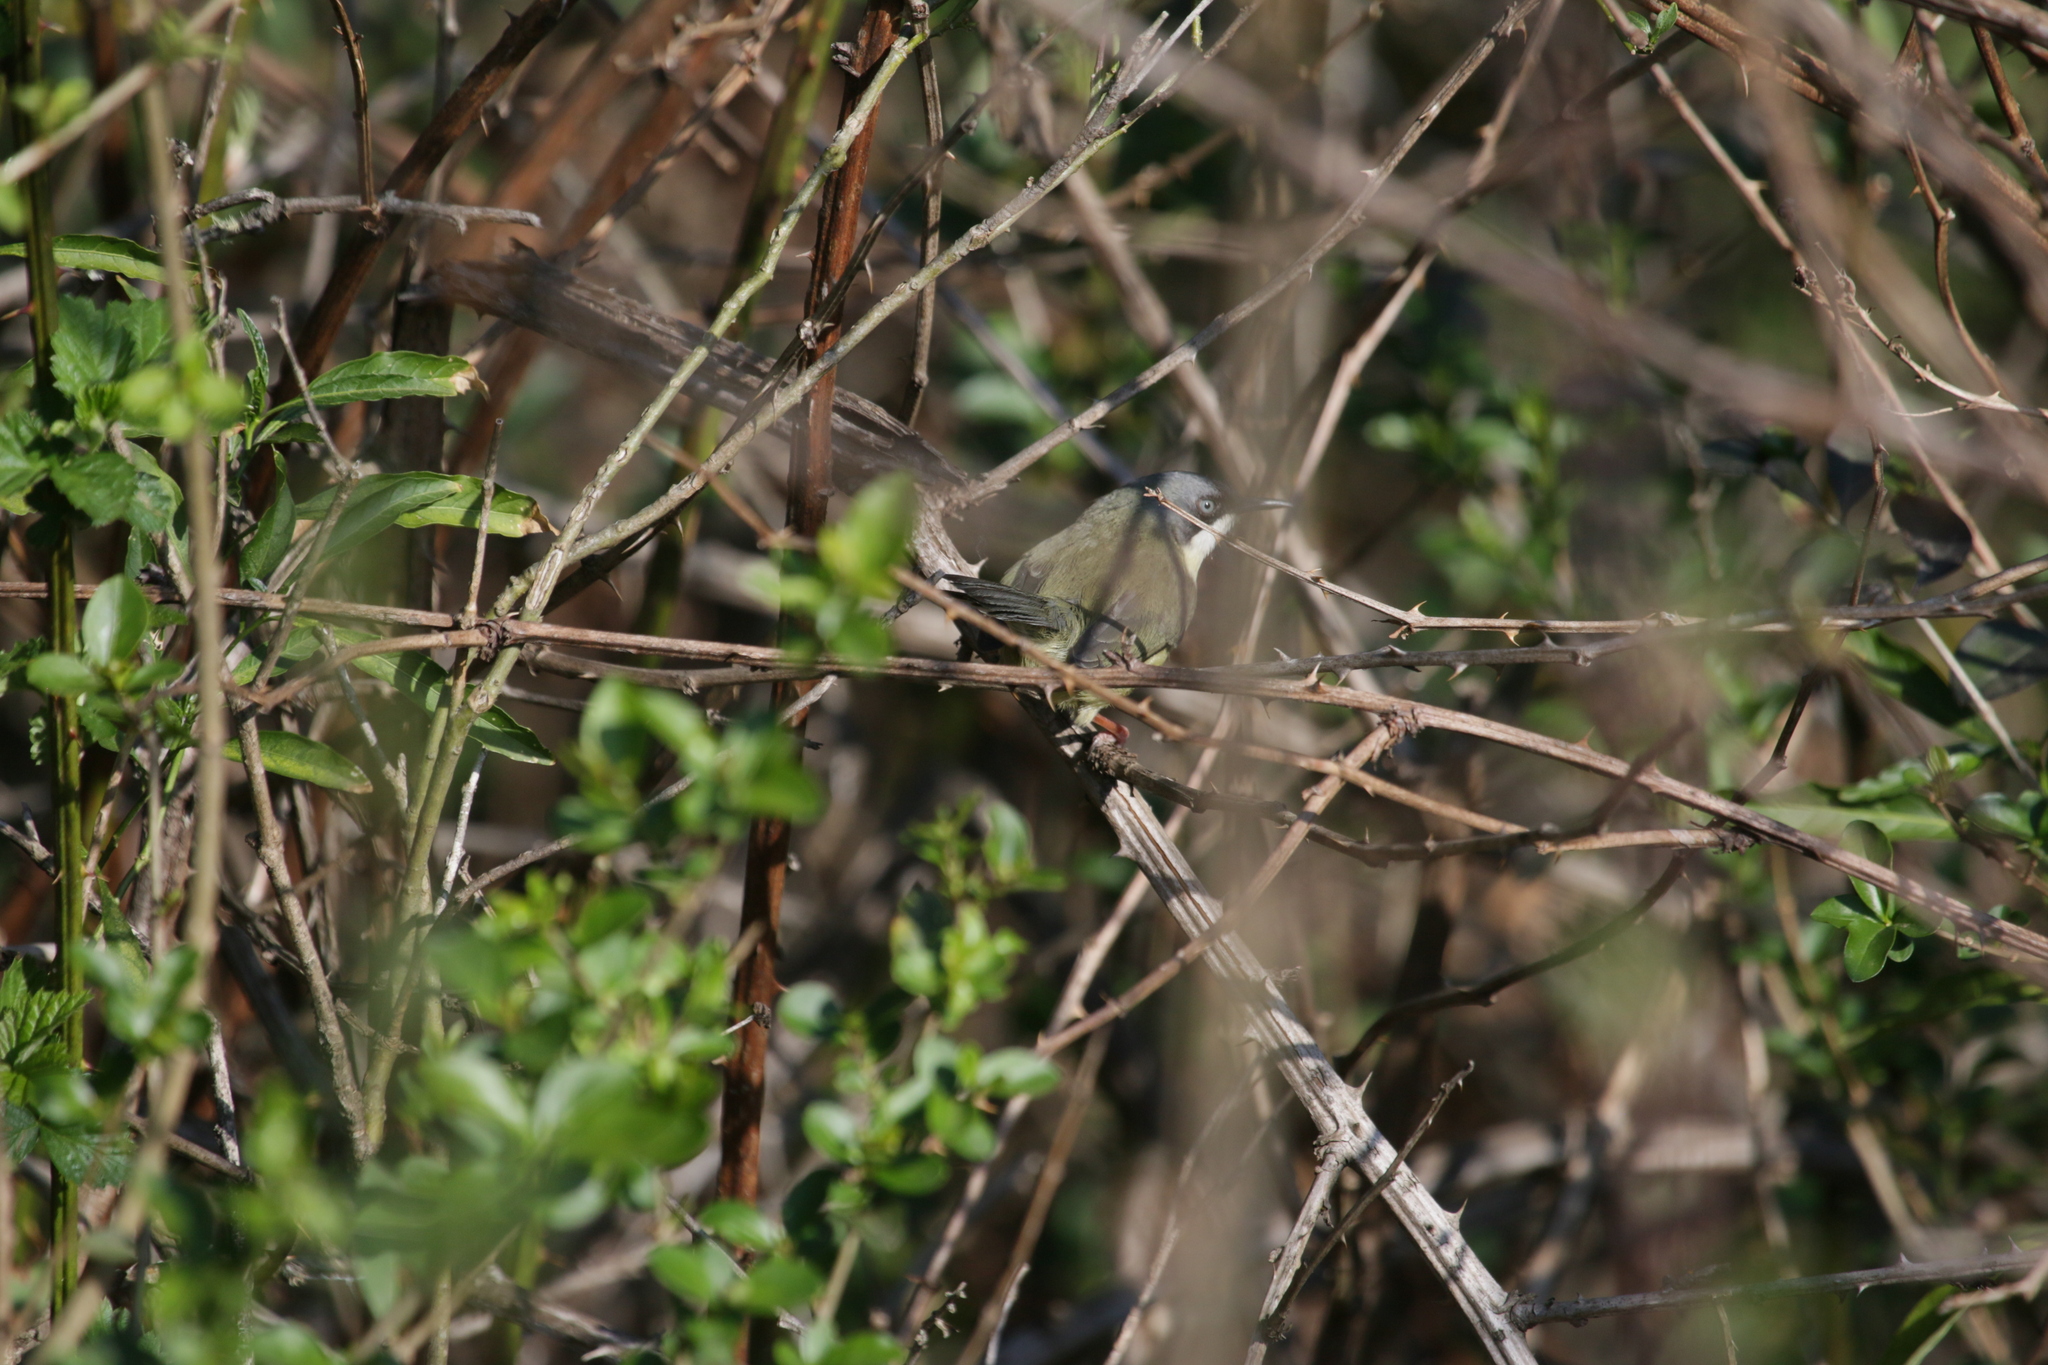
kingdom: Animalia
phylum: Chordata
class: Aves
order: Passeriformes
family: Cisticolidae
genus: Apalis
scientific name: Apalis thoracica
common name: Bar-throated apalis
